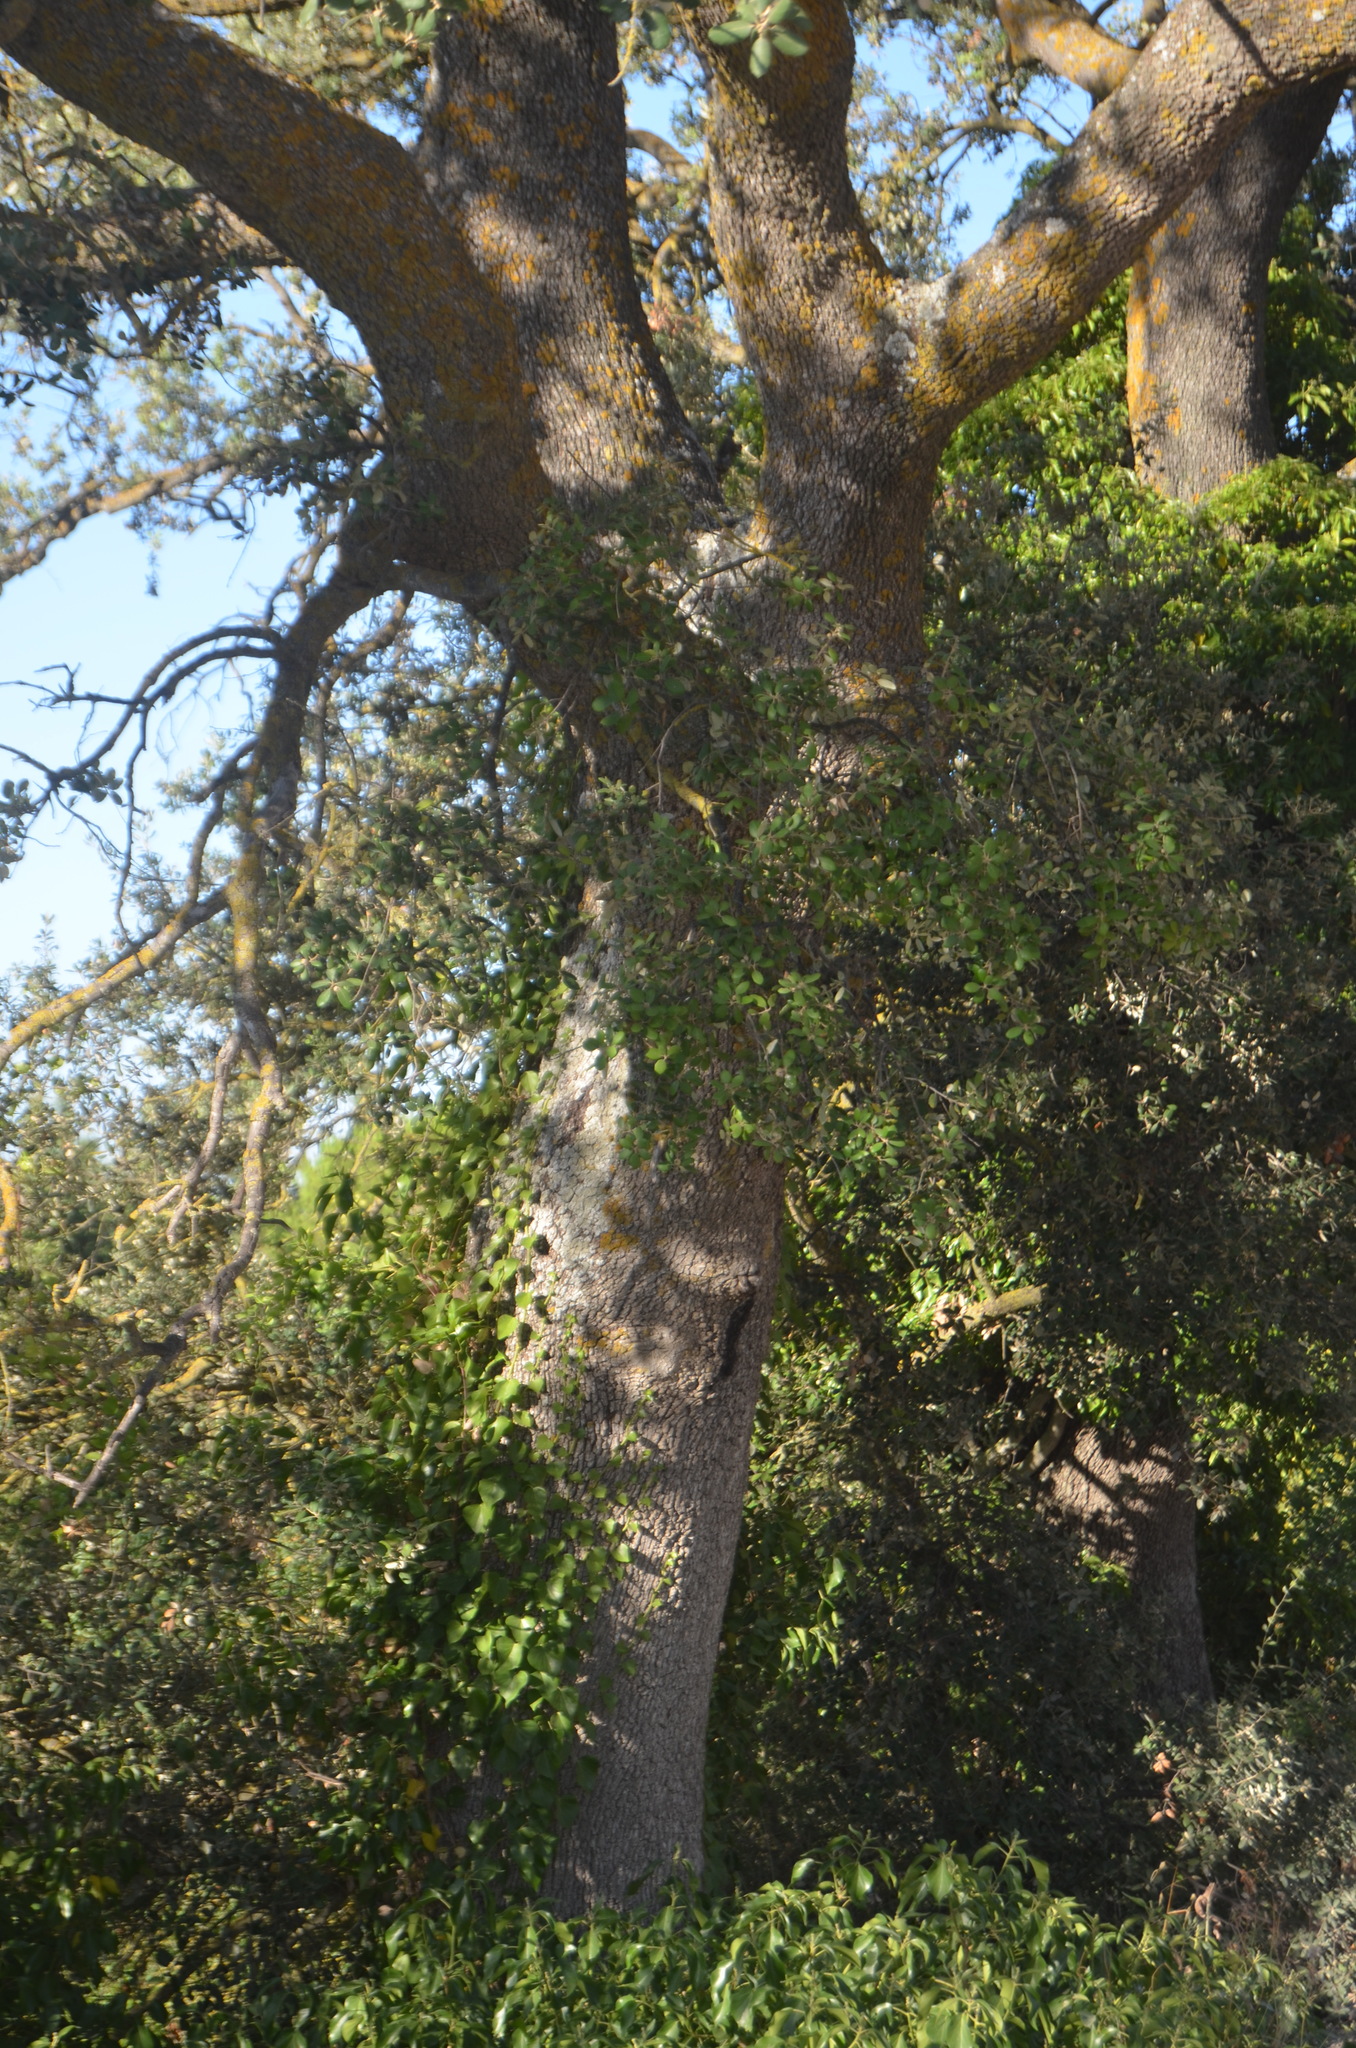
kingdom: Plantae
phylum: Tracheophyta
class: Magnoliopsida
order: Fagales
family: Fagaceae
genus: Quercus
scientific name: Quercus ilex
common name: Evergreen oak
